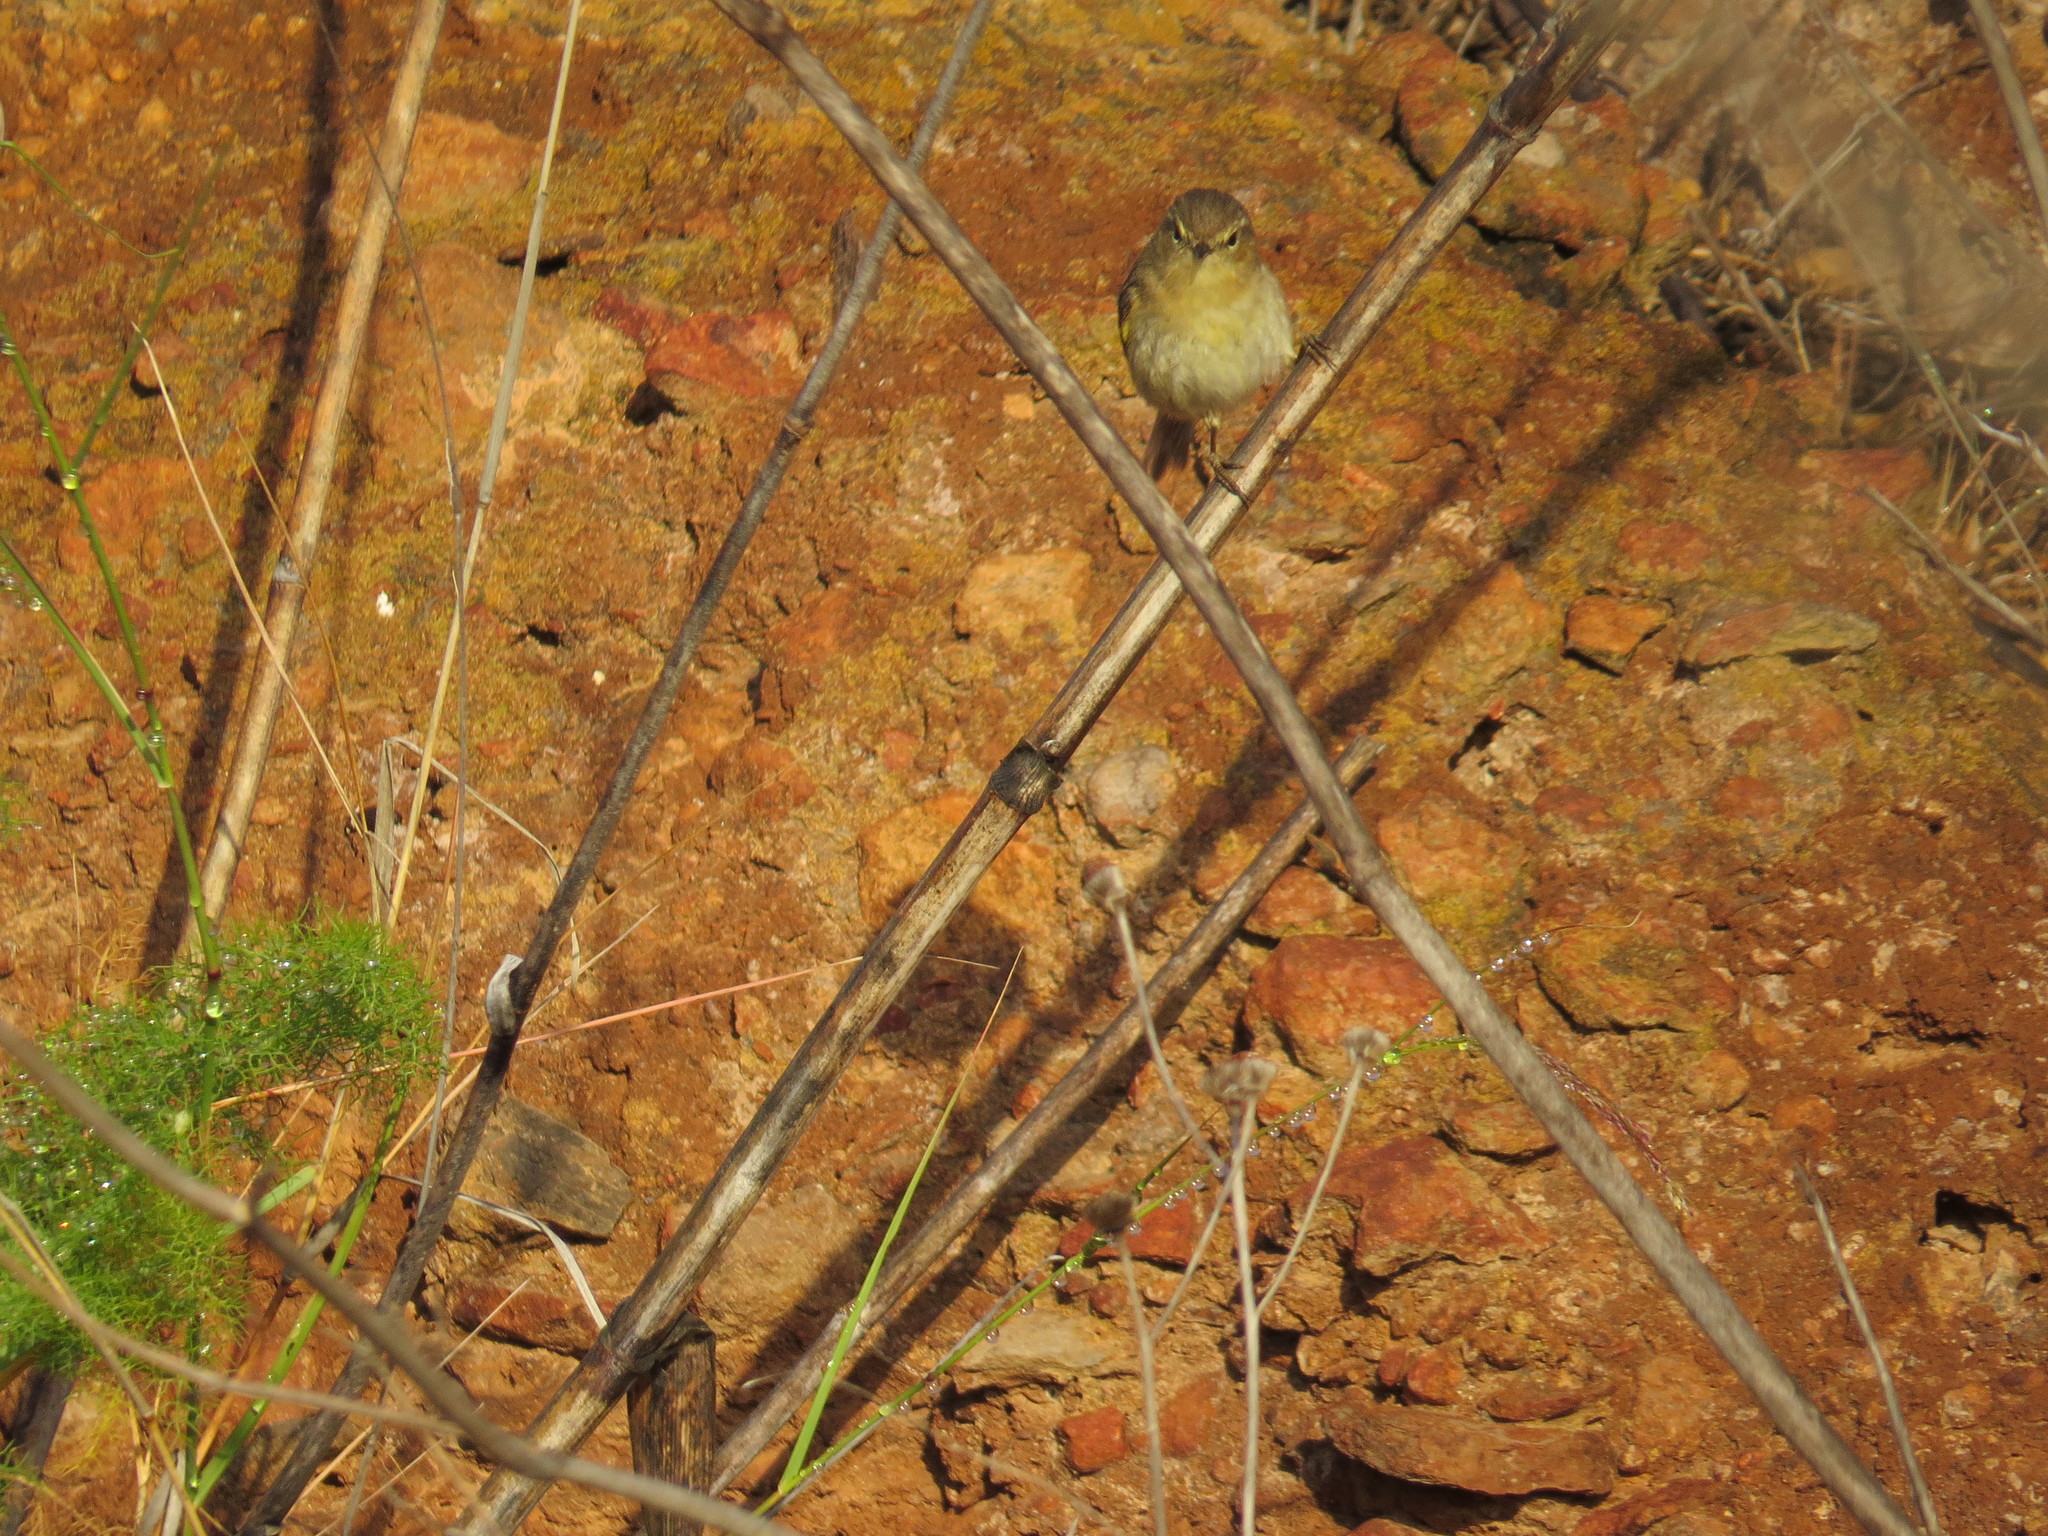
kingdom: Animalia
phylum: Chordata
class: Aves
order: Passeriformes
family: Phylloscopidae
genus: Phylloscopus
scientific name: Phylloscopus canariensis
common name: Canary islands chiffchaff
